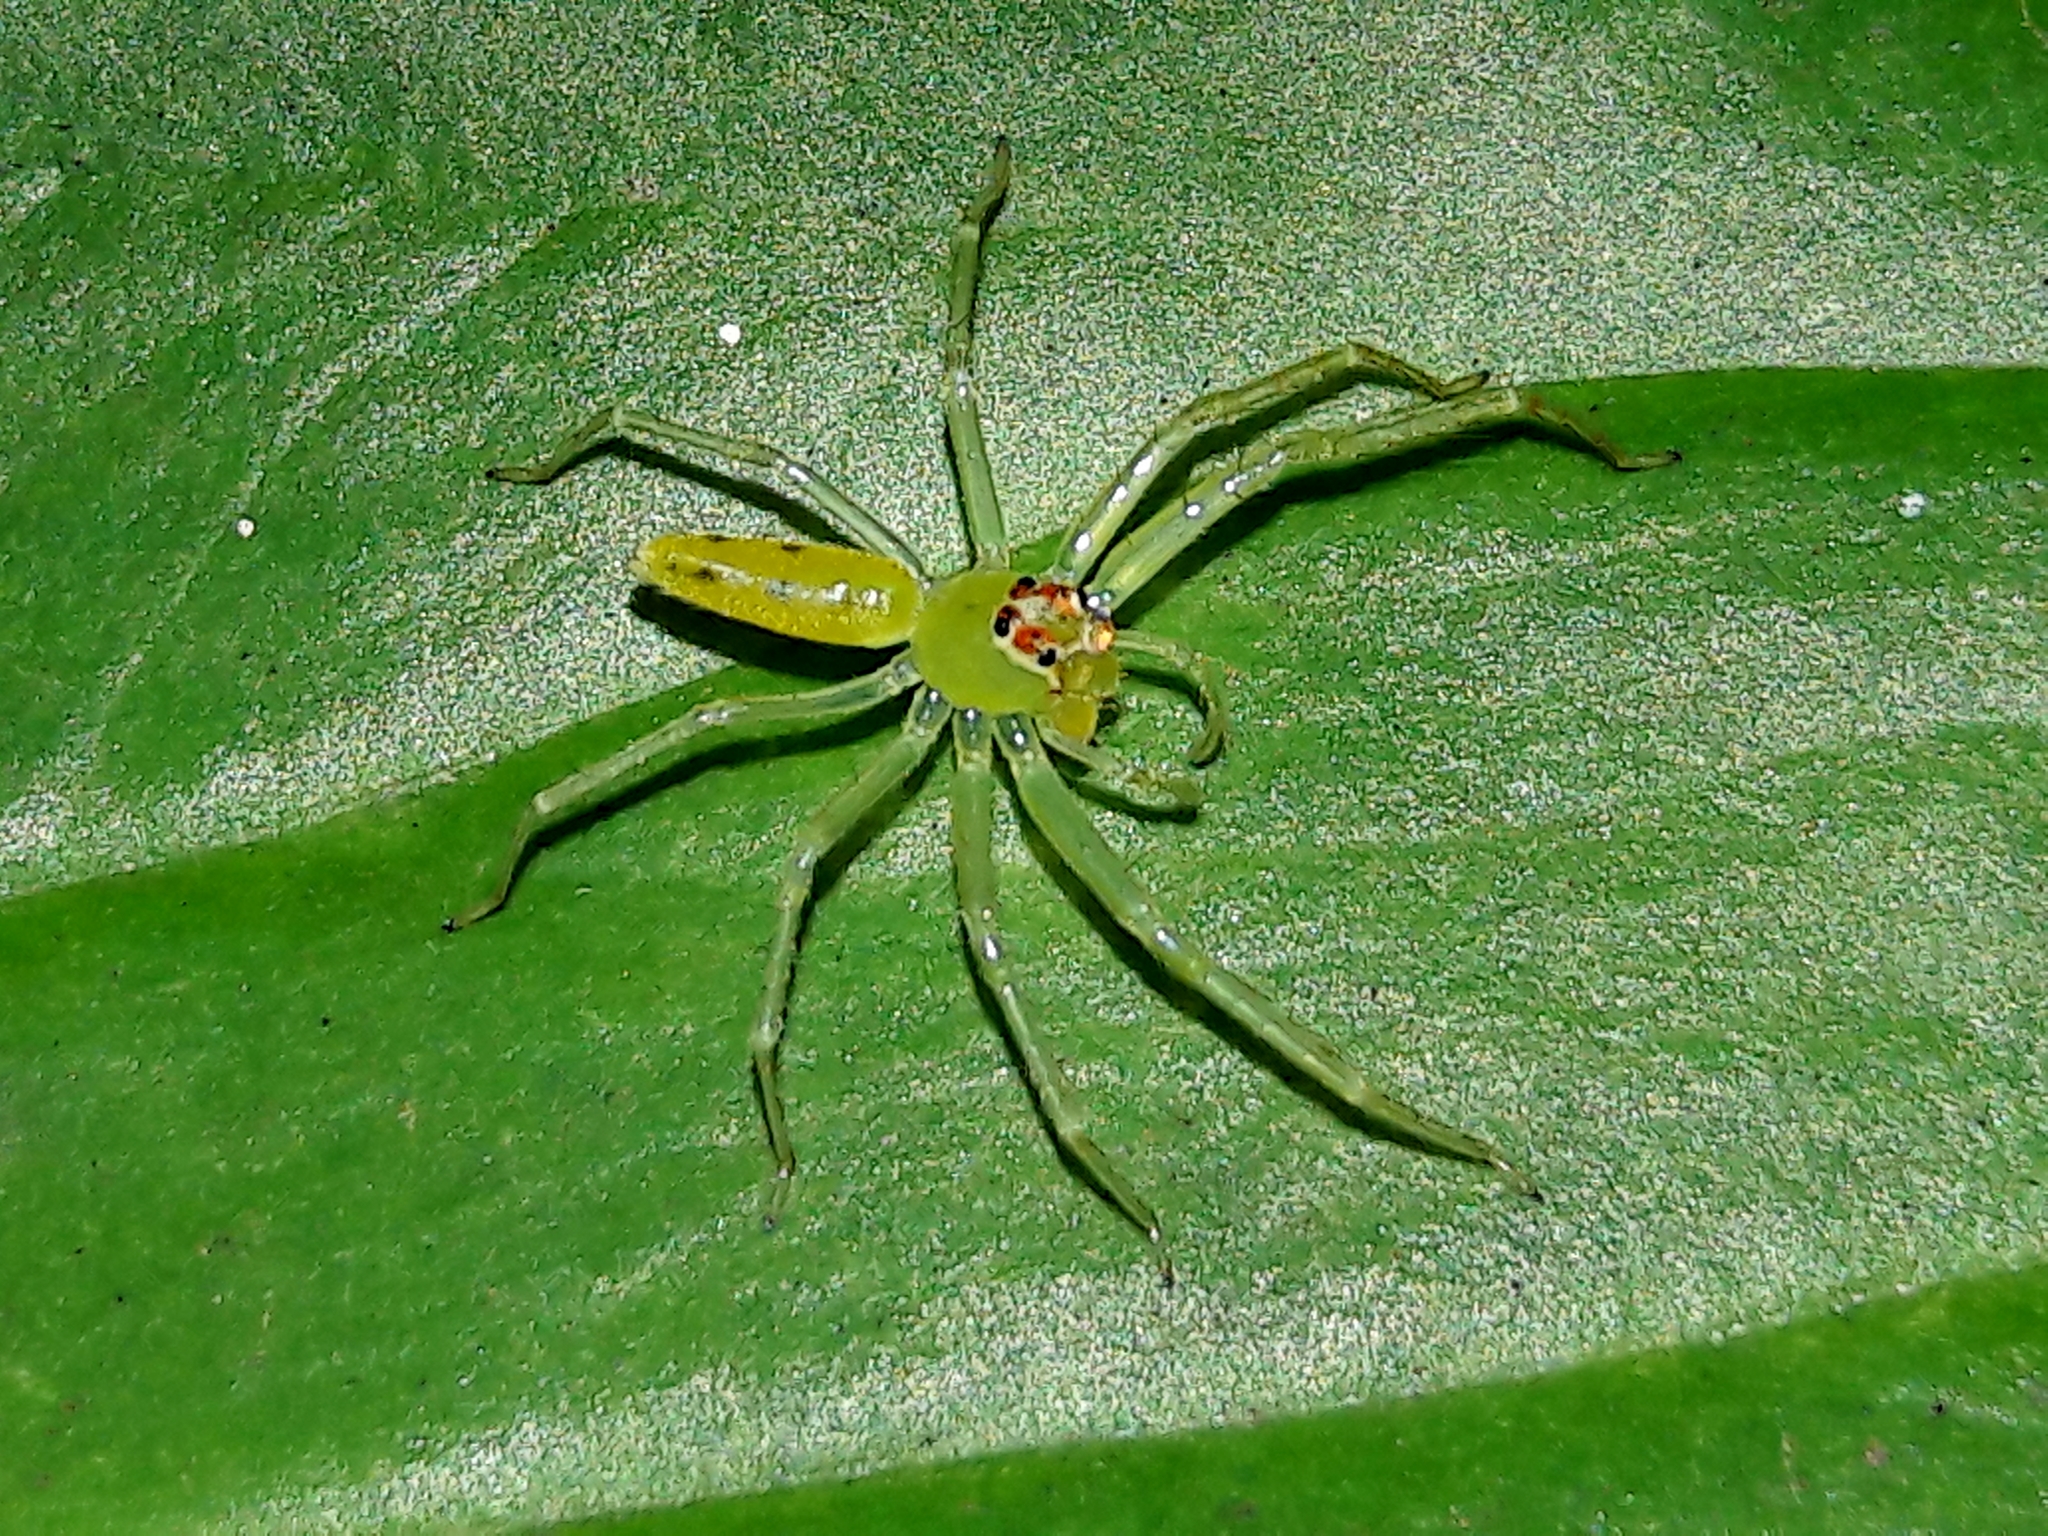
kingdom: Animalia
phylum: Arthropoda
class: Arachnida
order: Araneae
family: Salticidae
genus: Lyssomanes
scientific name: Lyssomanes
